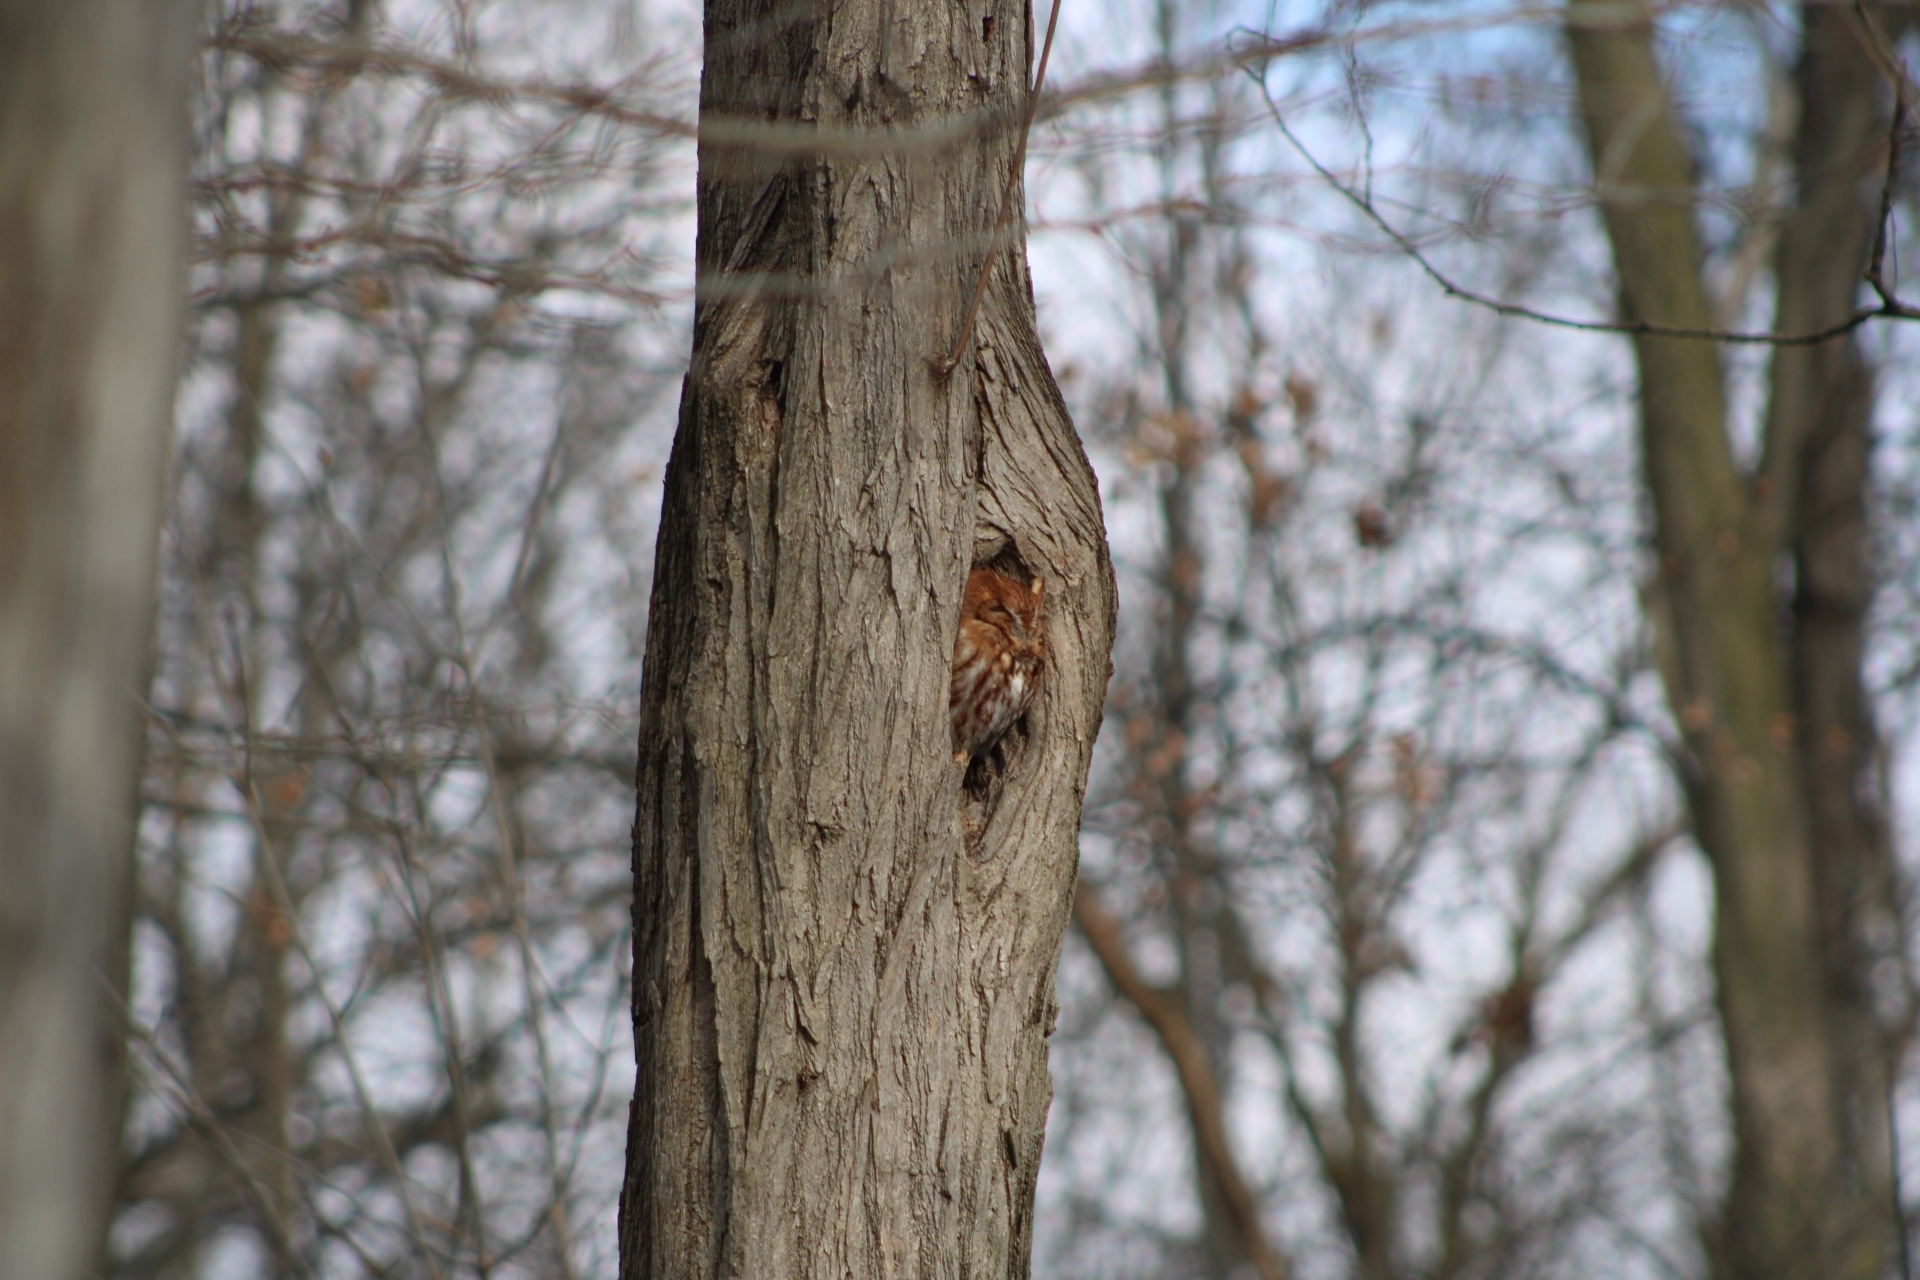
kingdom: Animalia
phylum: Chordata
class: Aves
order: Strigiformes
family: Strigidae
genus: Megascops
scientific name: Megascops asio
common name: Eastern screech-owl
